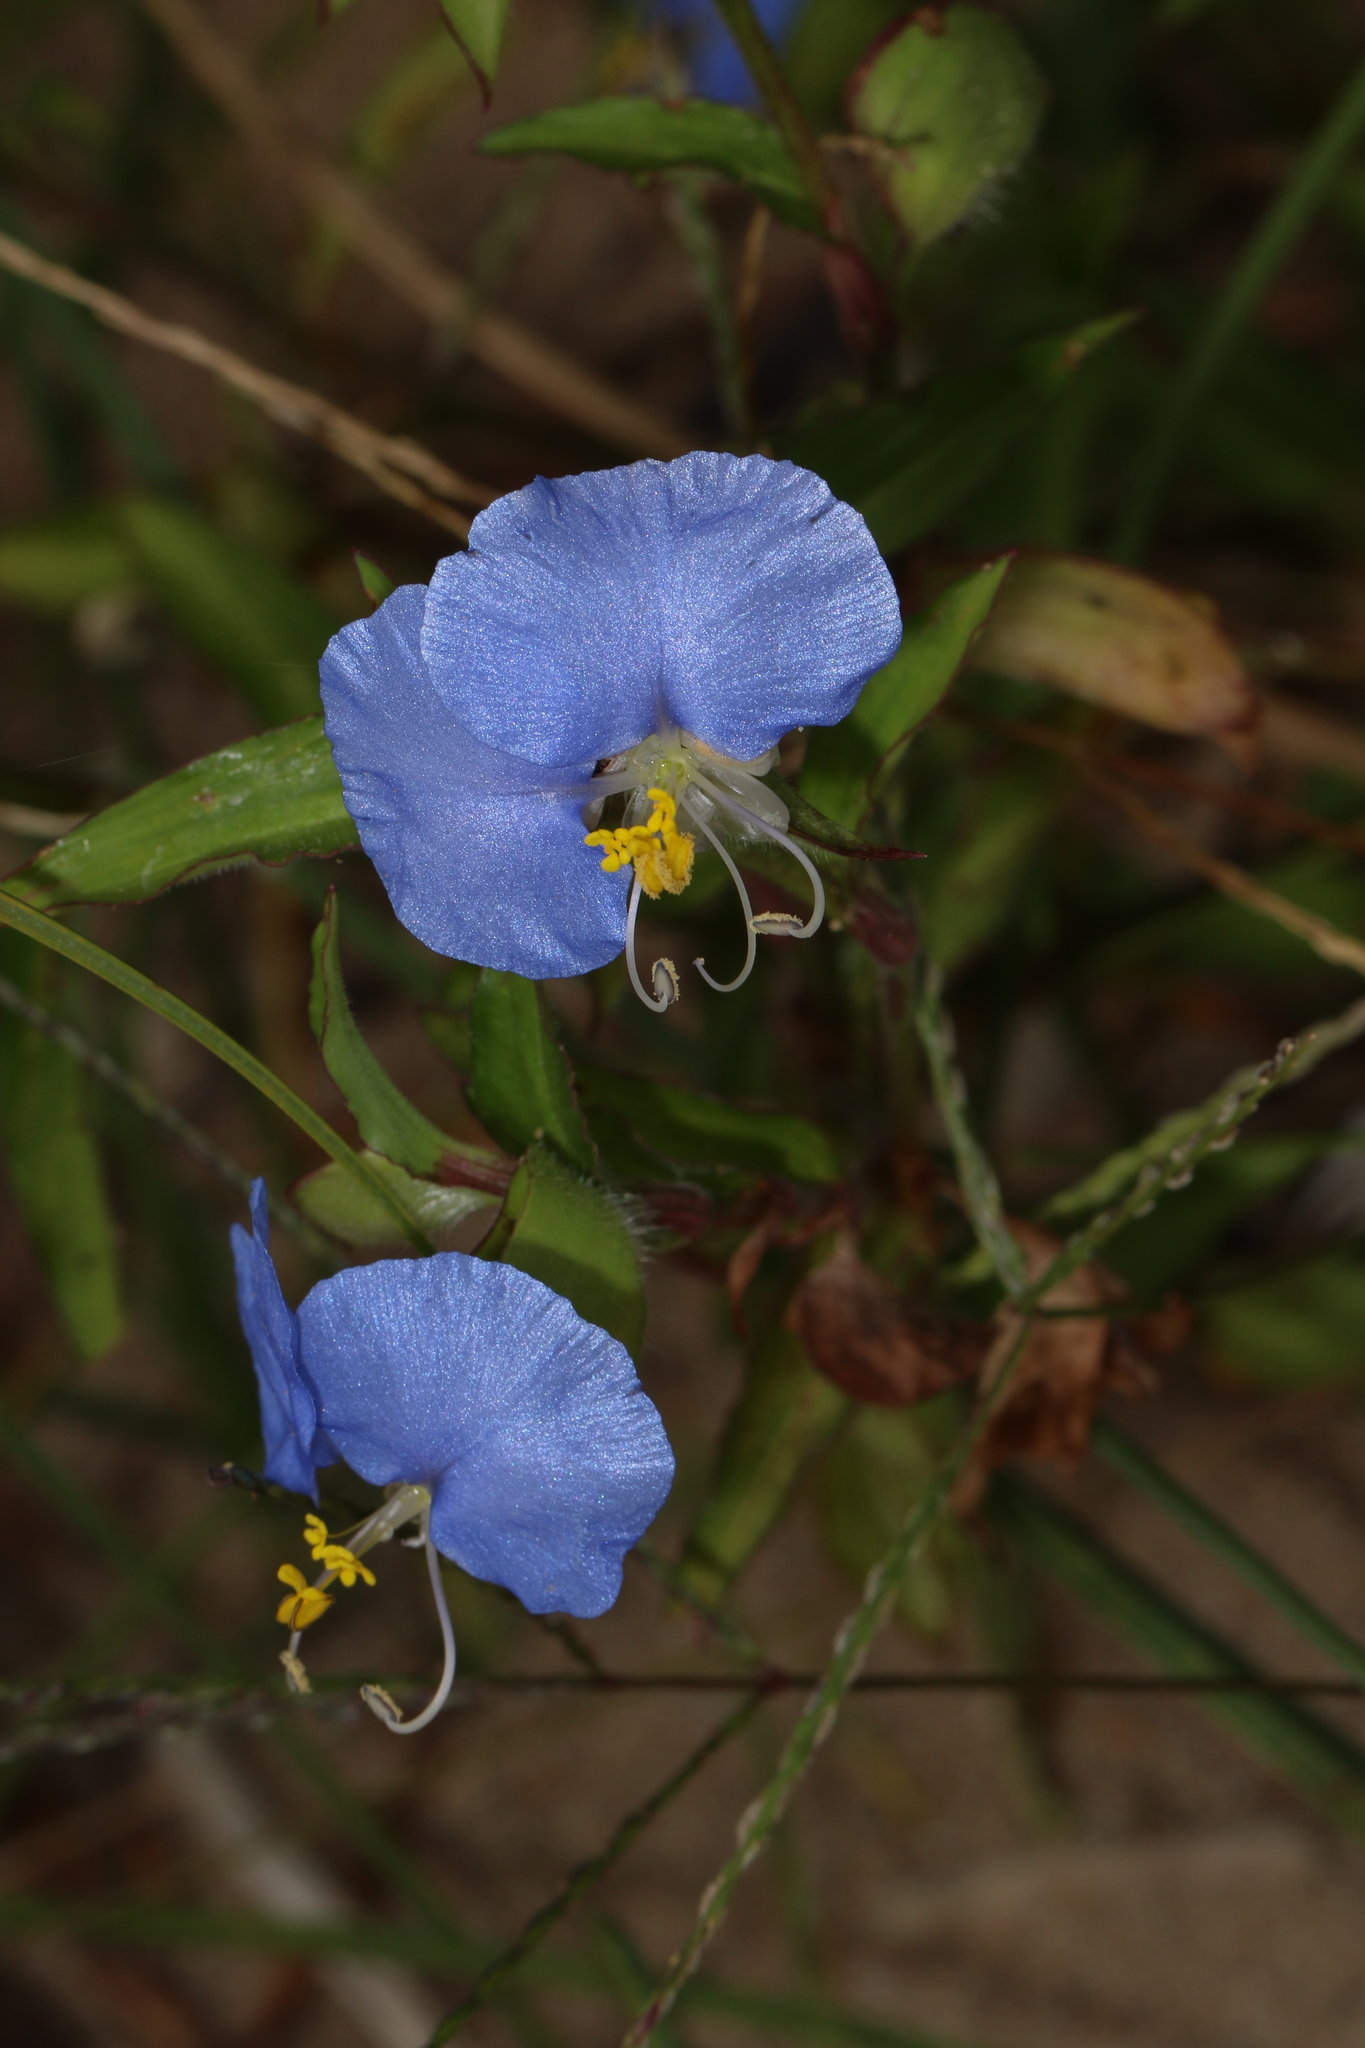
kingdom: Plantae
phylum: Tracheophyta
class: Liliopsida
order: Commelinales
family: Commelinaceae
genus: Commelina
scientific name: Commelina erecta
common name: Blousel blommetjie
